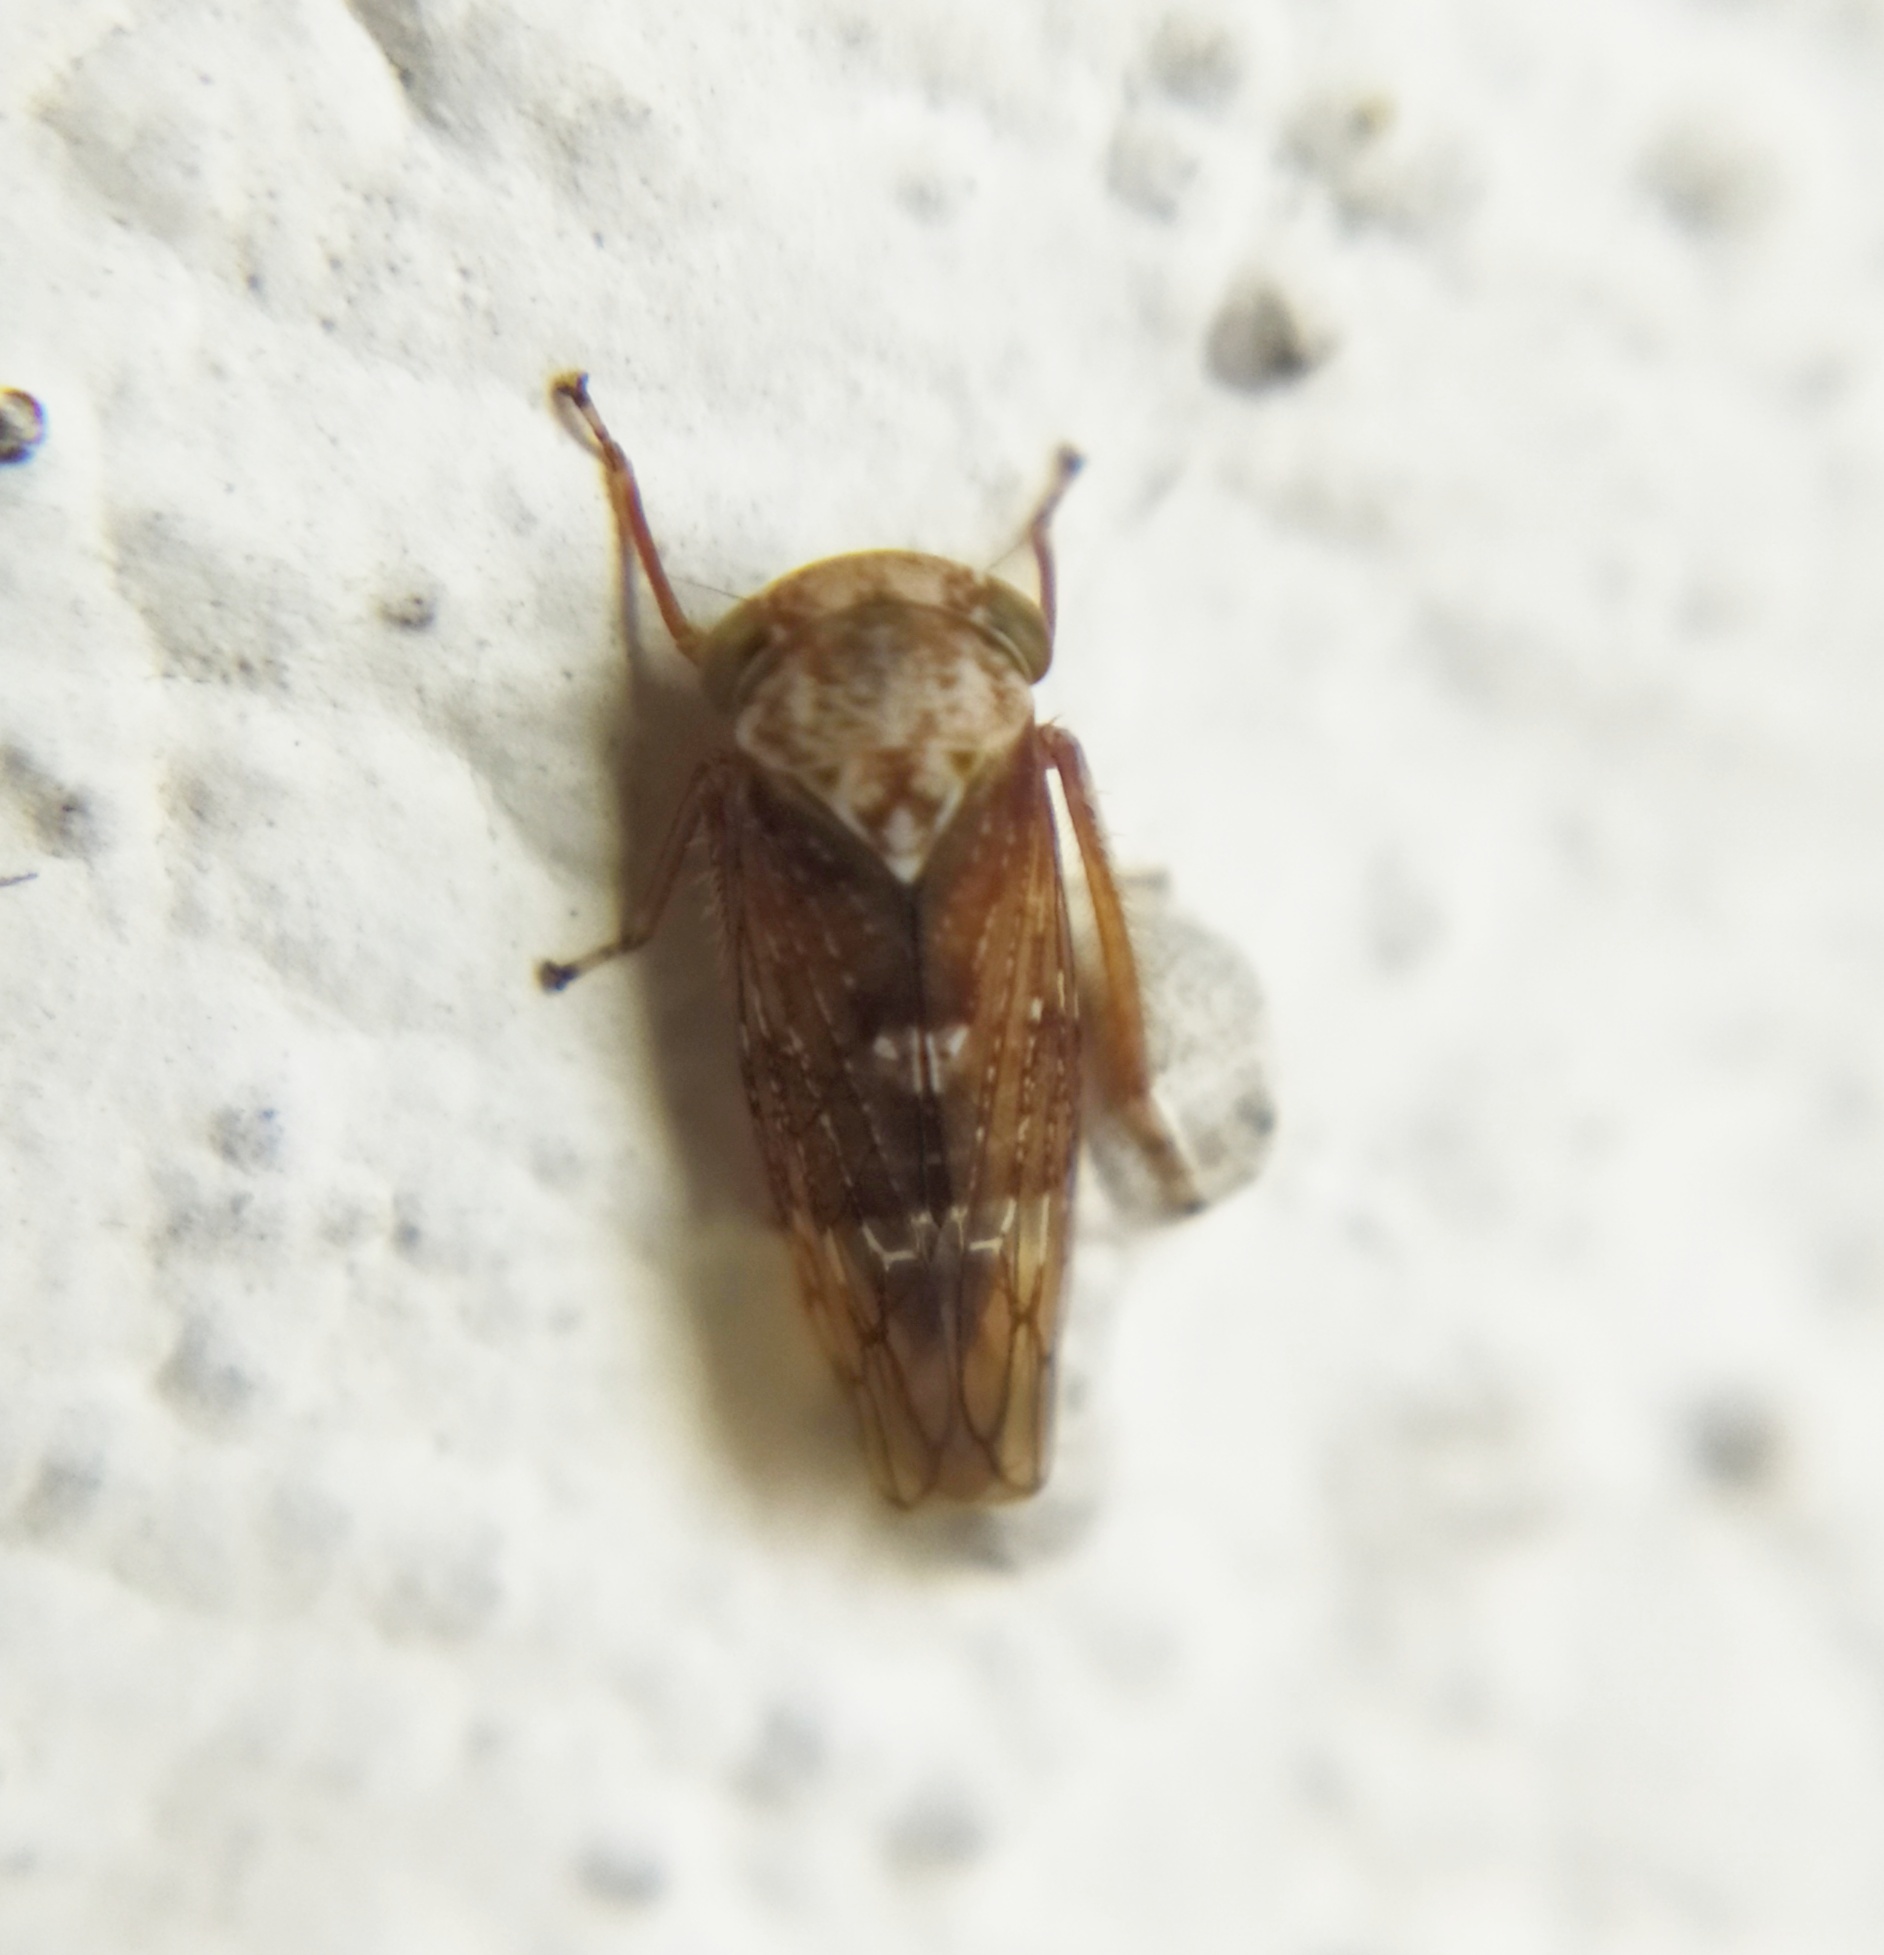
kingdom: Animalia
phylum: Arthropoda
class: Insecta
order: Hemiptera
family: Cicadellidae
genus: Acericerus
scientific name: Acericerus ribauti
